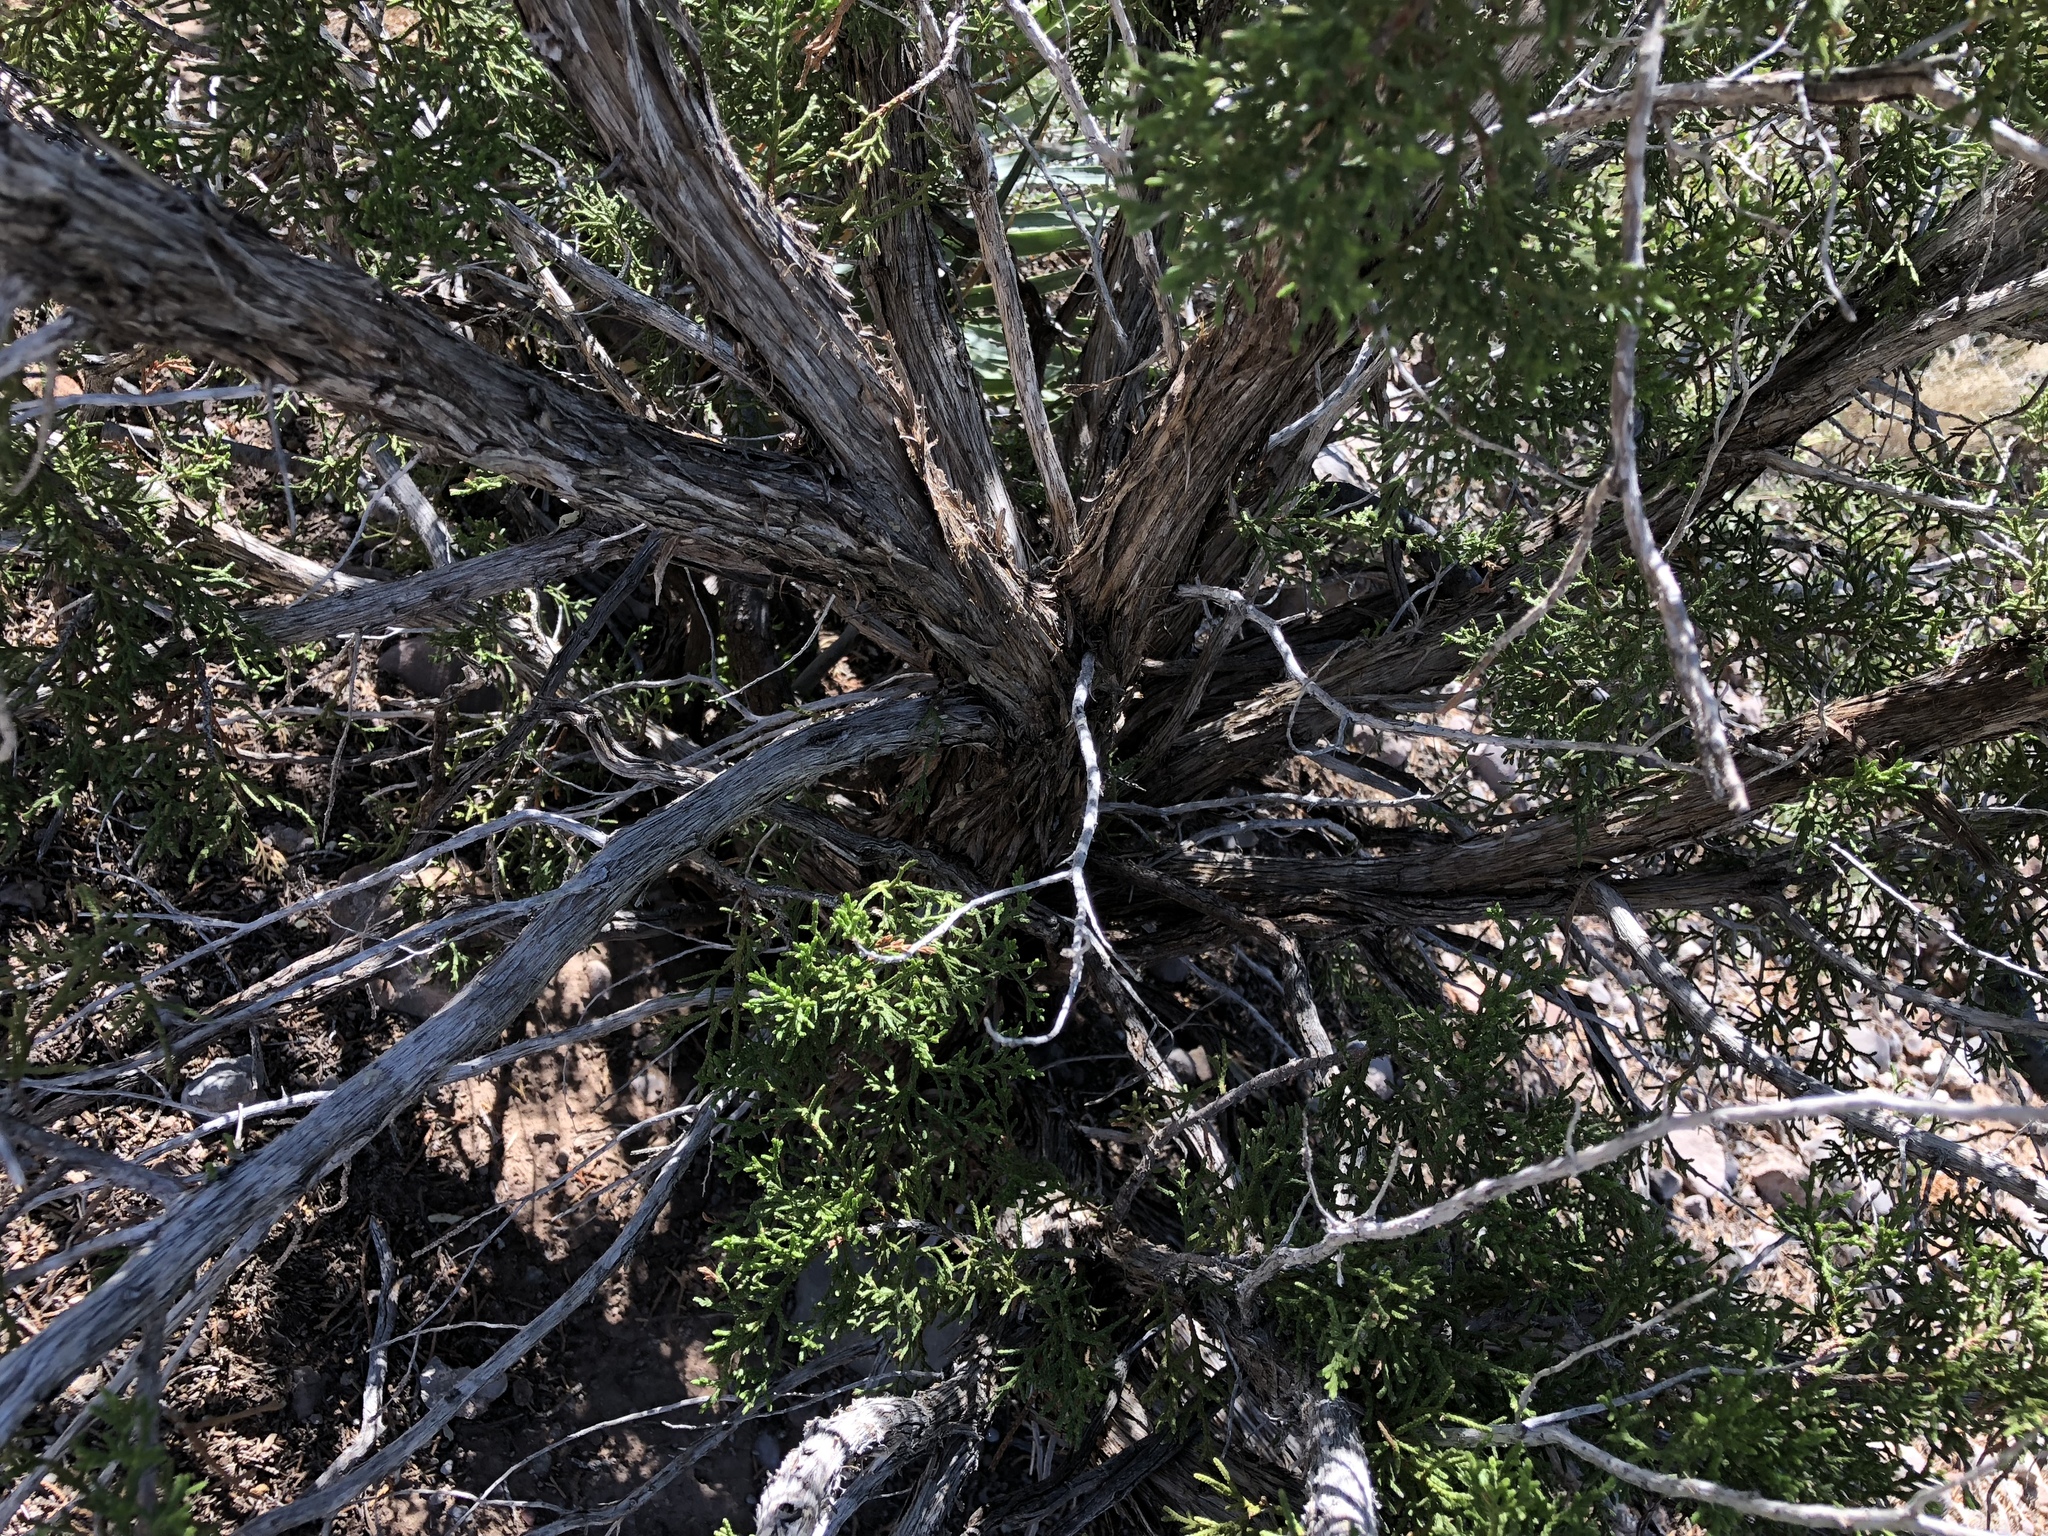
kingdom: Plantae
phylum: Tracheophyta
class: Pinopsida
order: Pinales
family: Cupressaceae
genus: Juniperus
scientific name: Juniperus monosperma
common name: One-seed juniper
